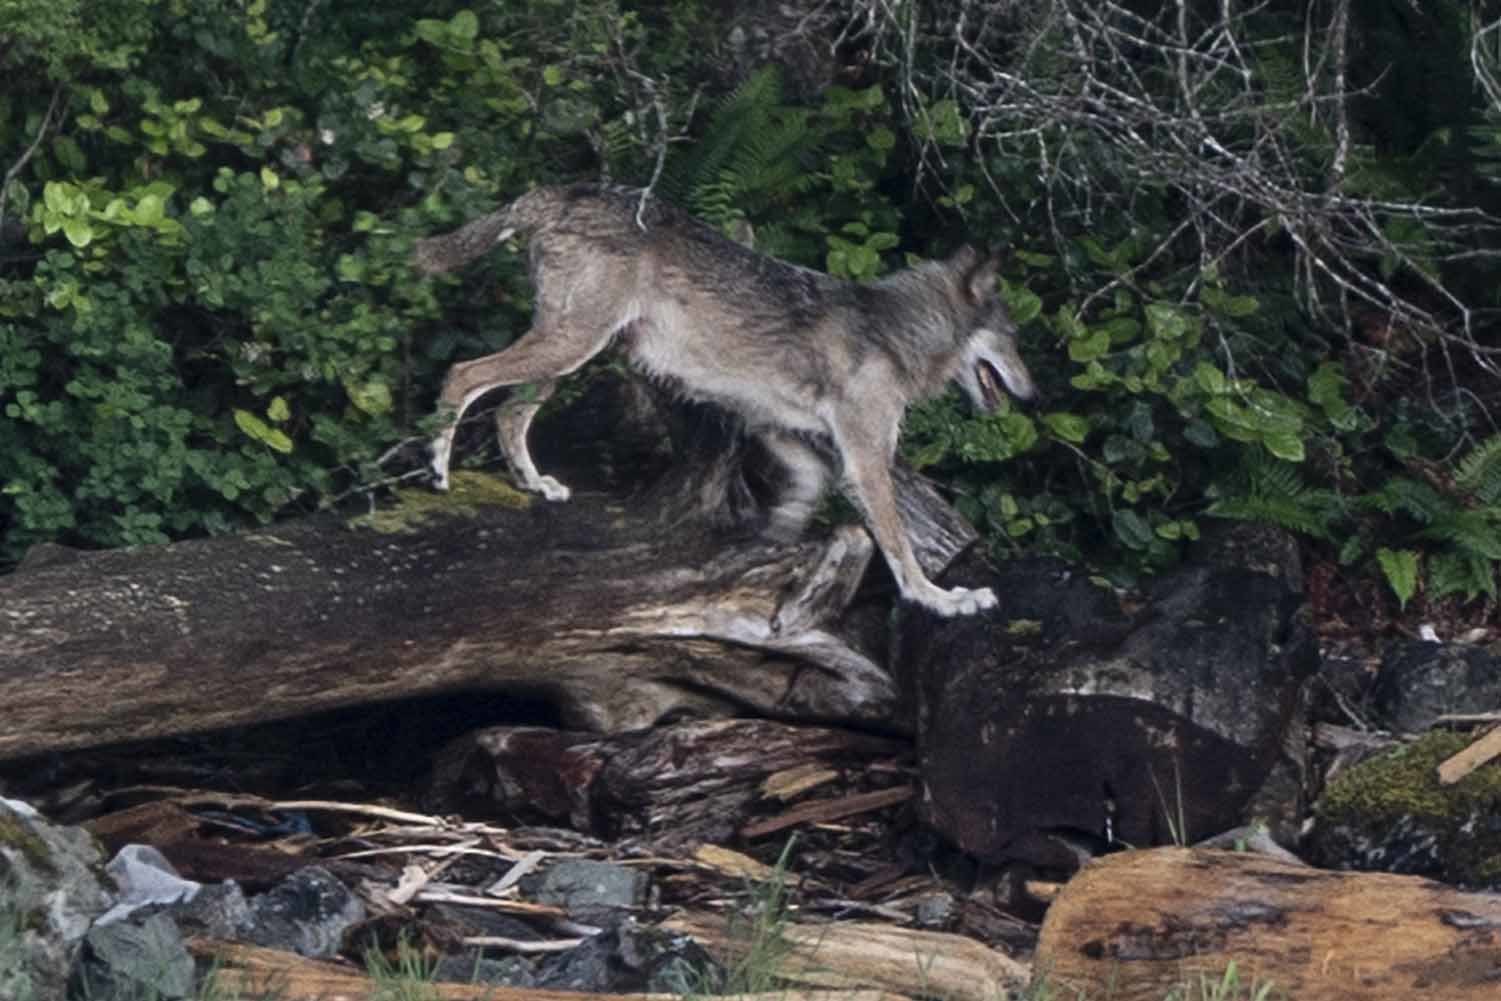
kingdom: Animalia
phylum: Chordata
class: Mammalia
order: Carnivora
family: Canidae
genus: Canis
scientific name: Canis lupus
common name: Gray wolf
